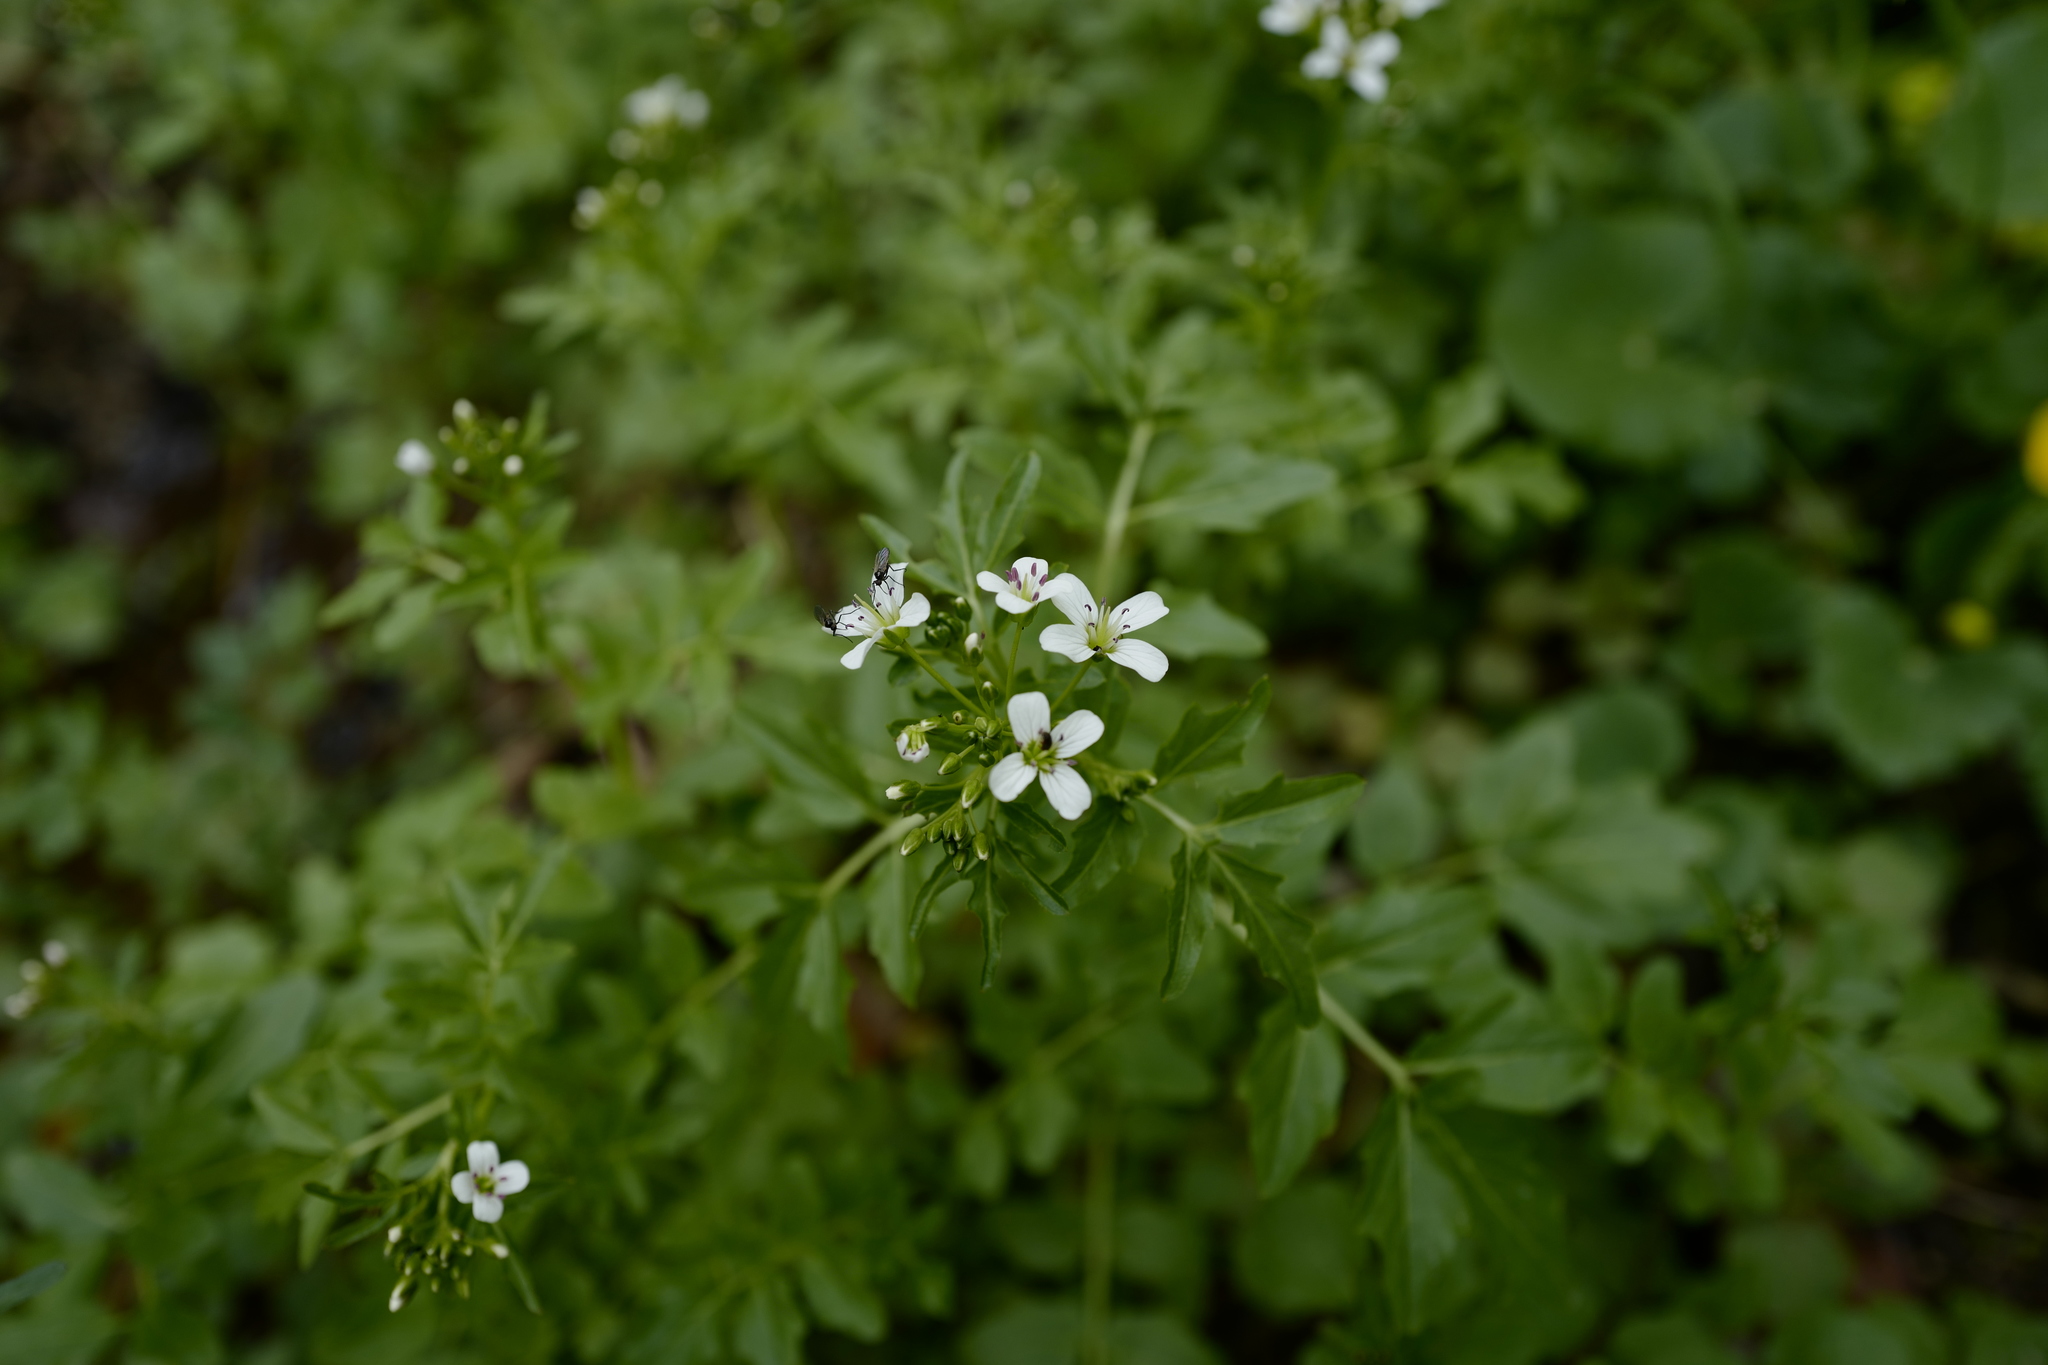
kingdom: Plantae
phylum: Tracheophyta
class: Magnoliopsida
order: Brassicales
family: Brassicaceae
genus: Cardamine
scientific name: Cardamine amara
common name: Large bitter-cress
